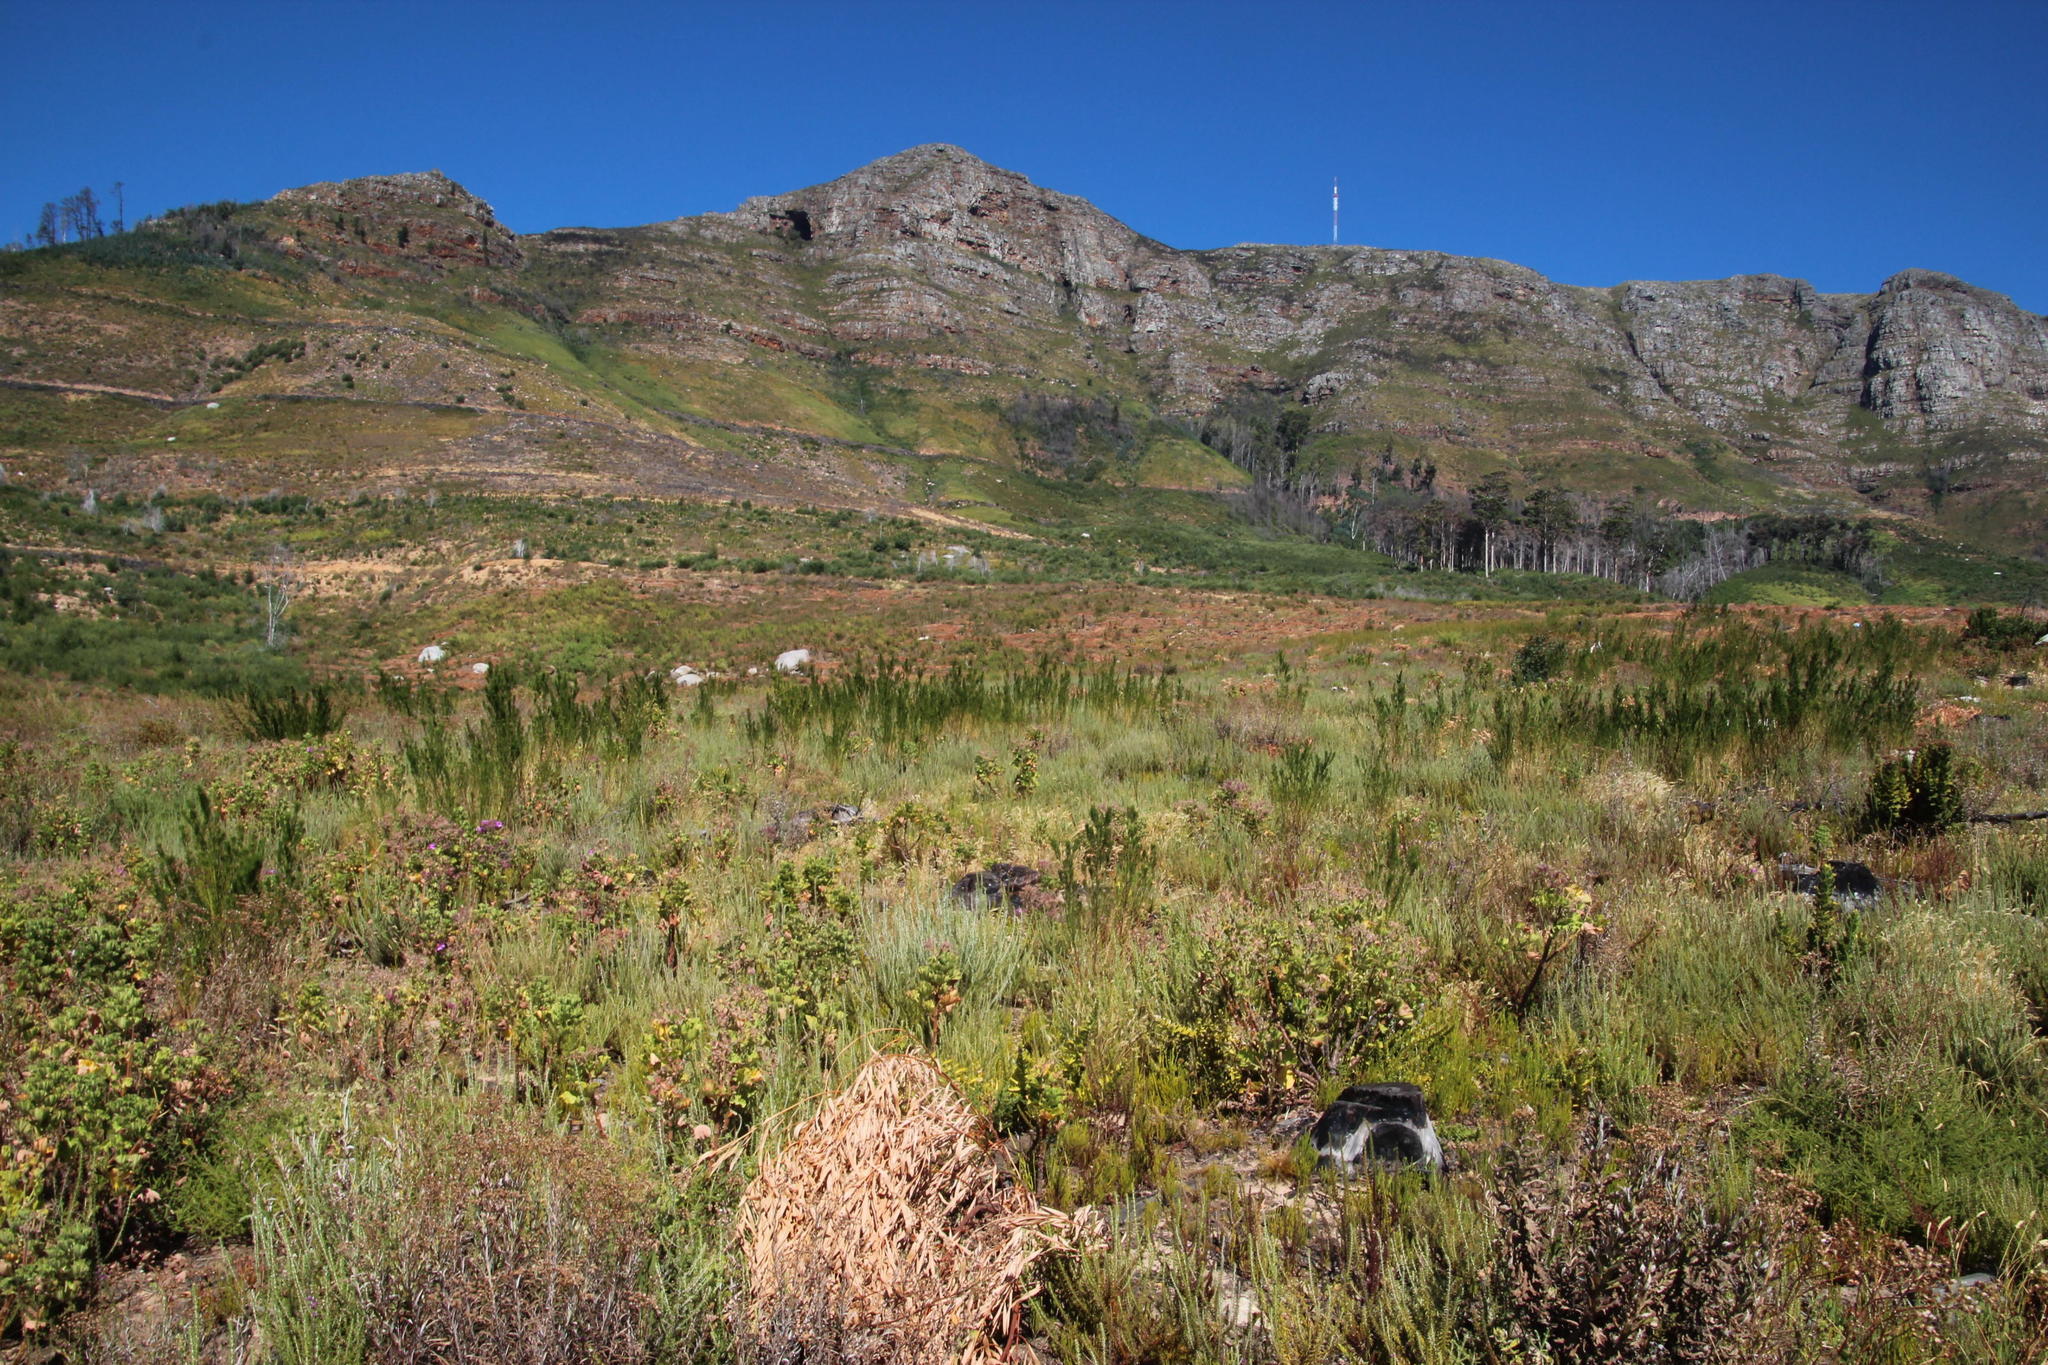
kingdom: Plantae
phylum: Tracheophyta
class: Magnoliopsida
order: Fabales
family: Fabaceae
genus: Psoralea
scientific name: Psoralea pinnata
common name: African scurfpea
